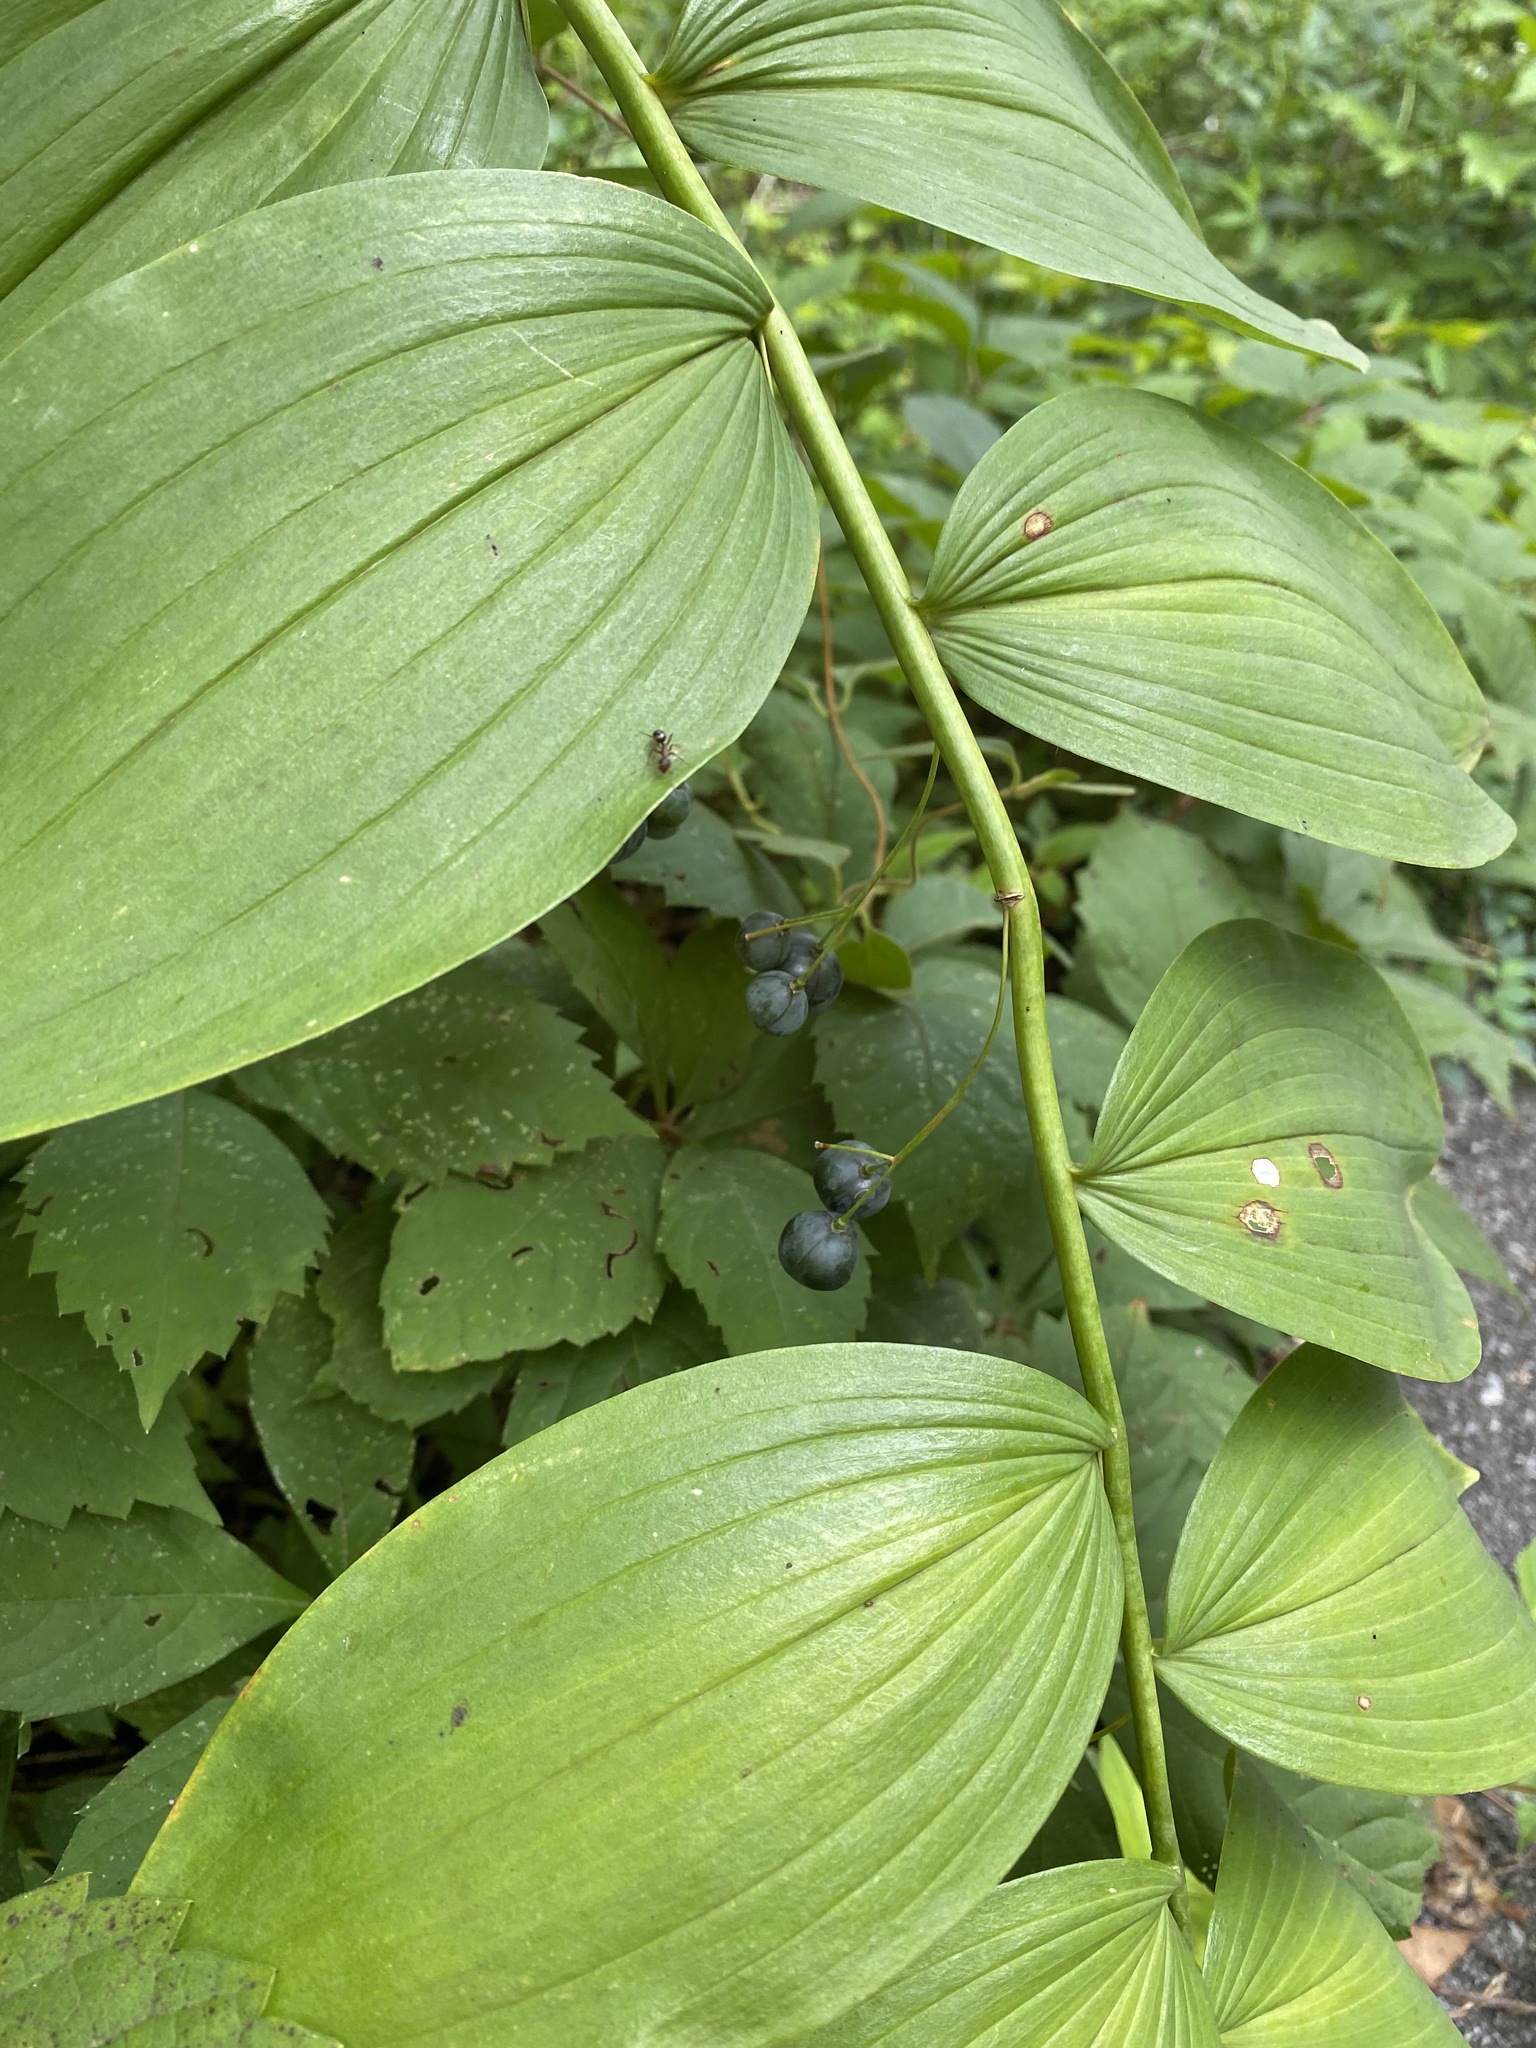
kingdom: Plantae
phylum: Tracheophyta
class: Liliopsida
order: Asparagales
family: Asparagaceae
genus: Polygonatum
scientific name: Polygonatum biflorum
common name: American solomon's-seal
